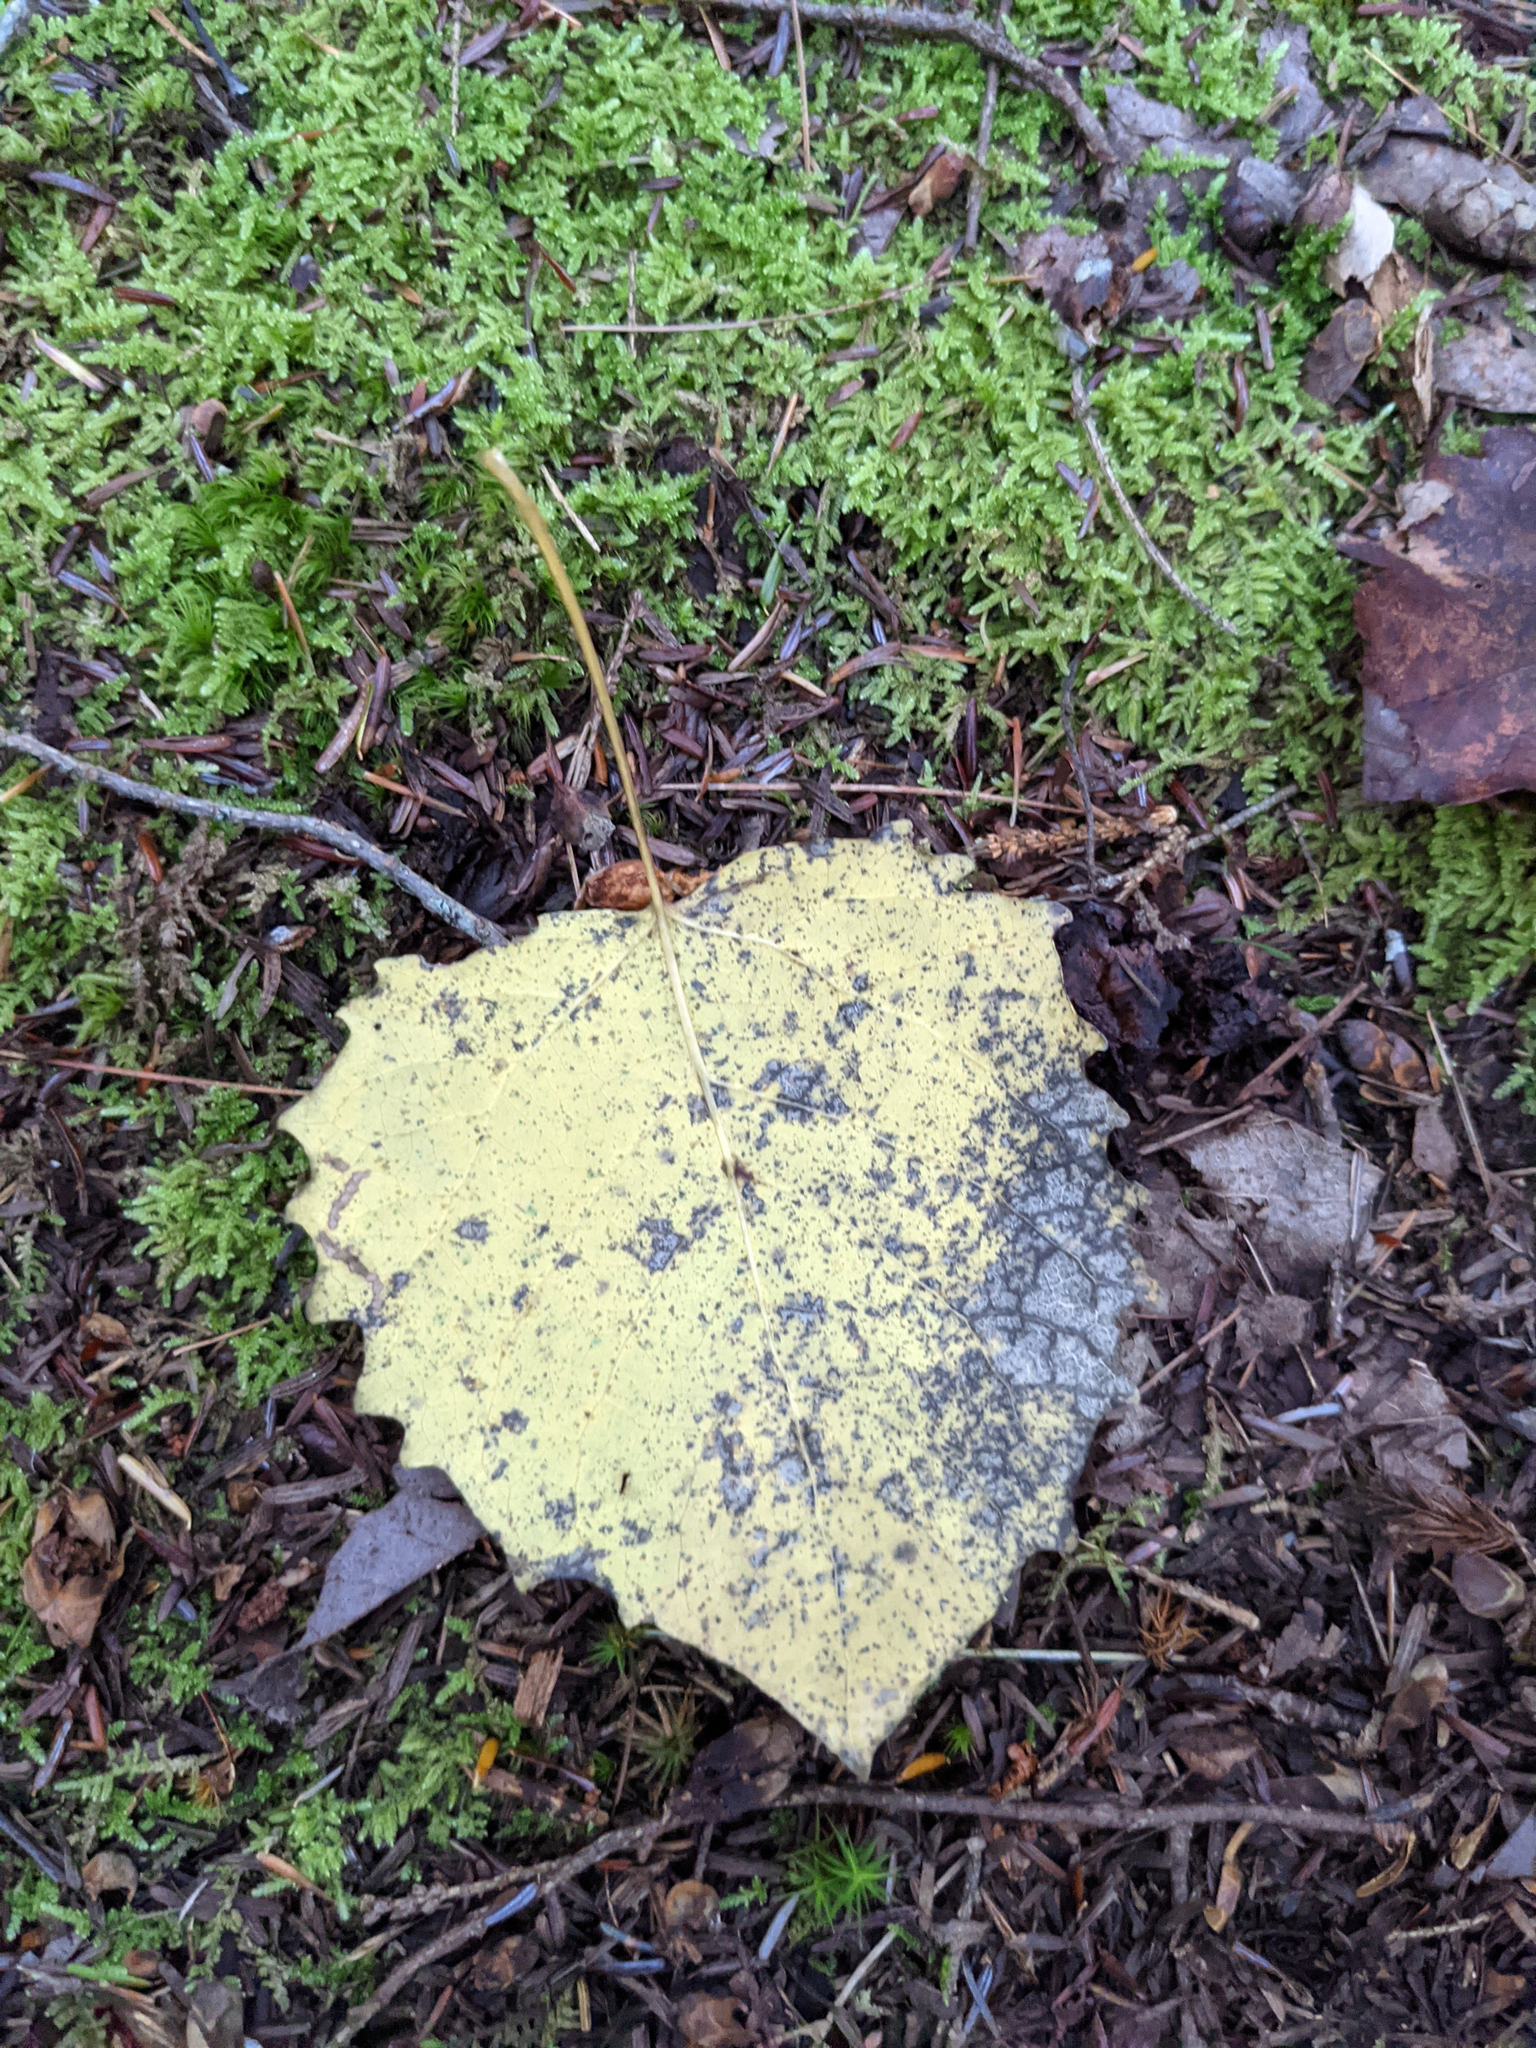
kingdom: Plantae
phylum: Tracheophyta
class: Magnoliopsida
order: Malpighiales
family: Salicaceae
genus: Populus
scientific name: Populus grandidentata
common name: Bigtooth aspen
